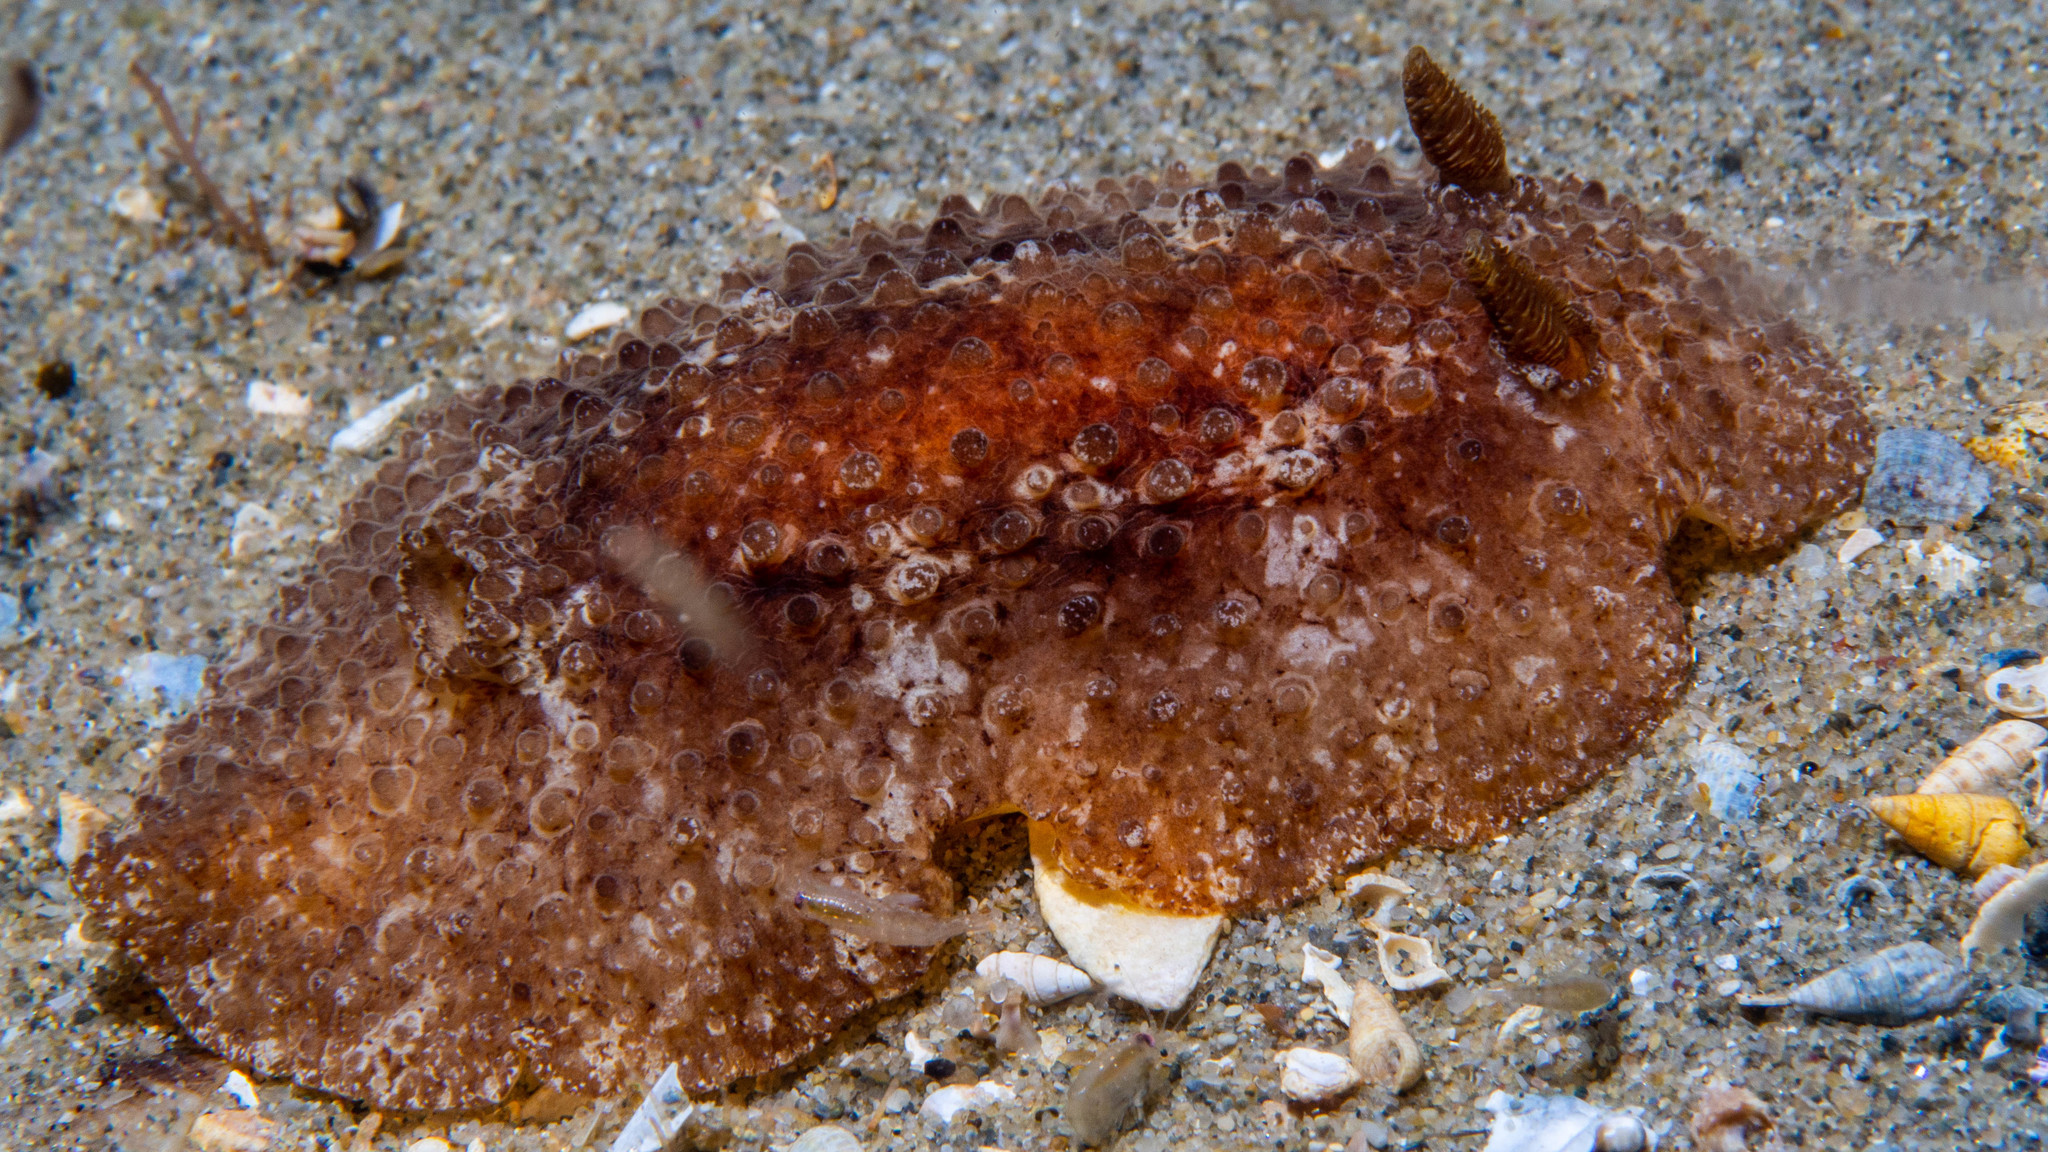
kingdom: Animalia
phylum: Mollusca
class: Gastropoda
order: Nudibranchia
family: Discodorididae
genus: Carminodoris
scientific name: Carminodoris nodulosa
